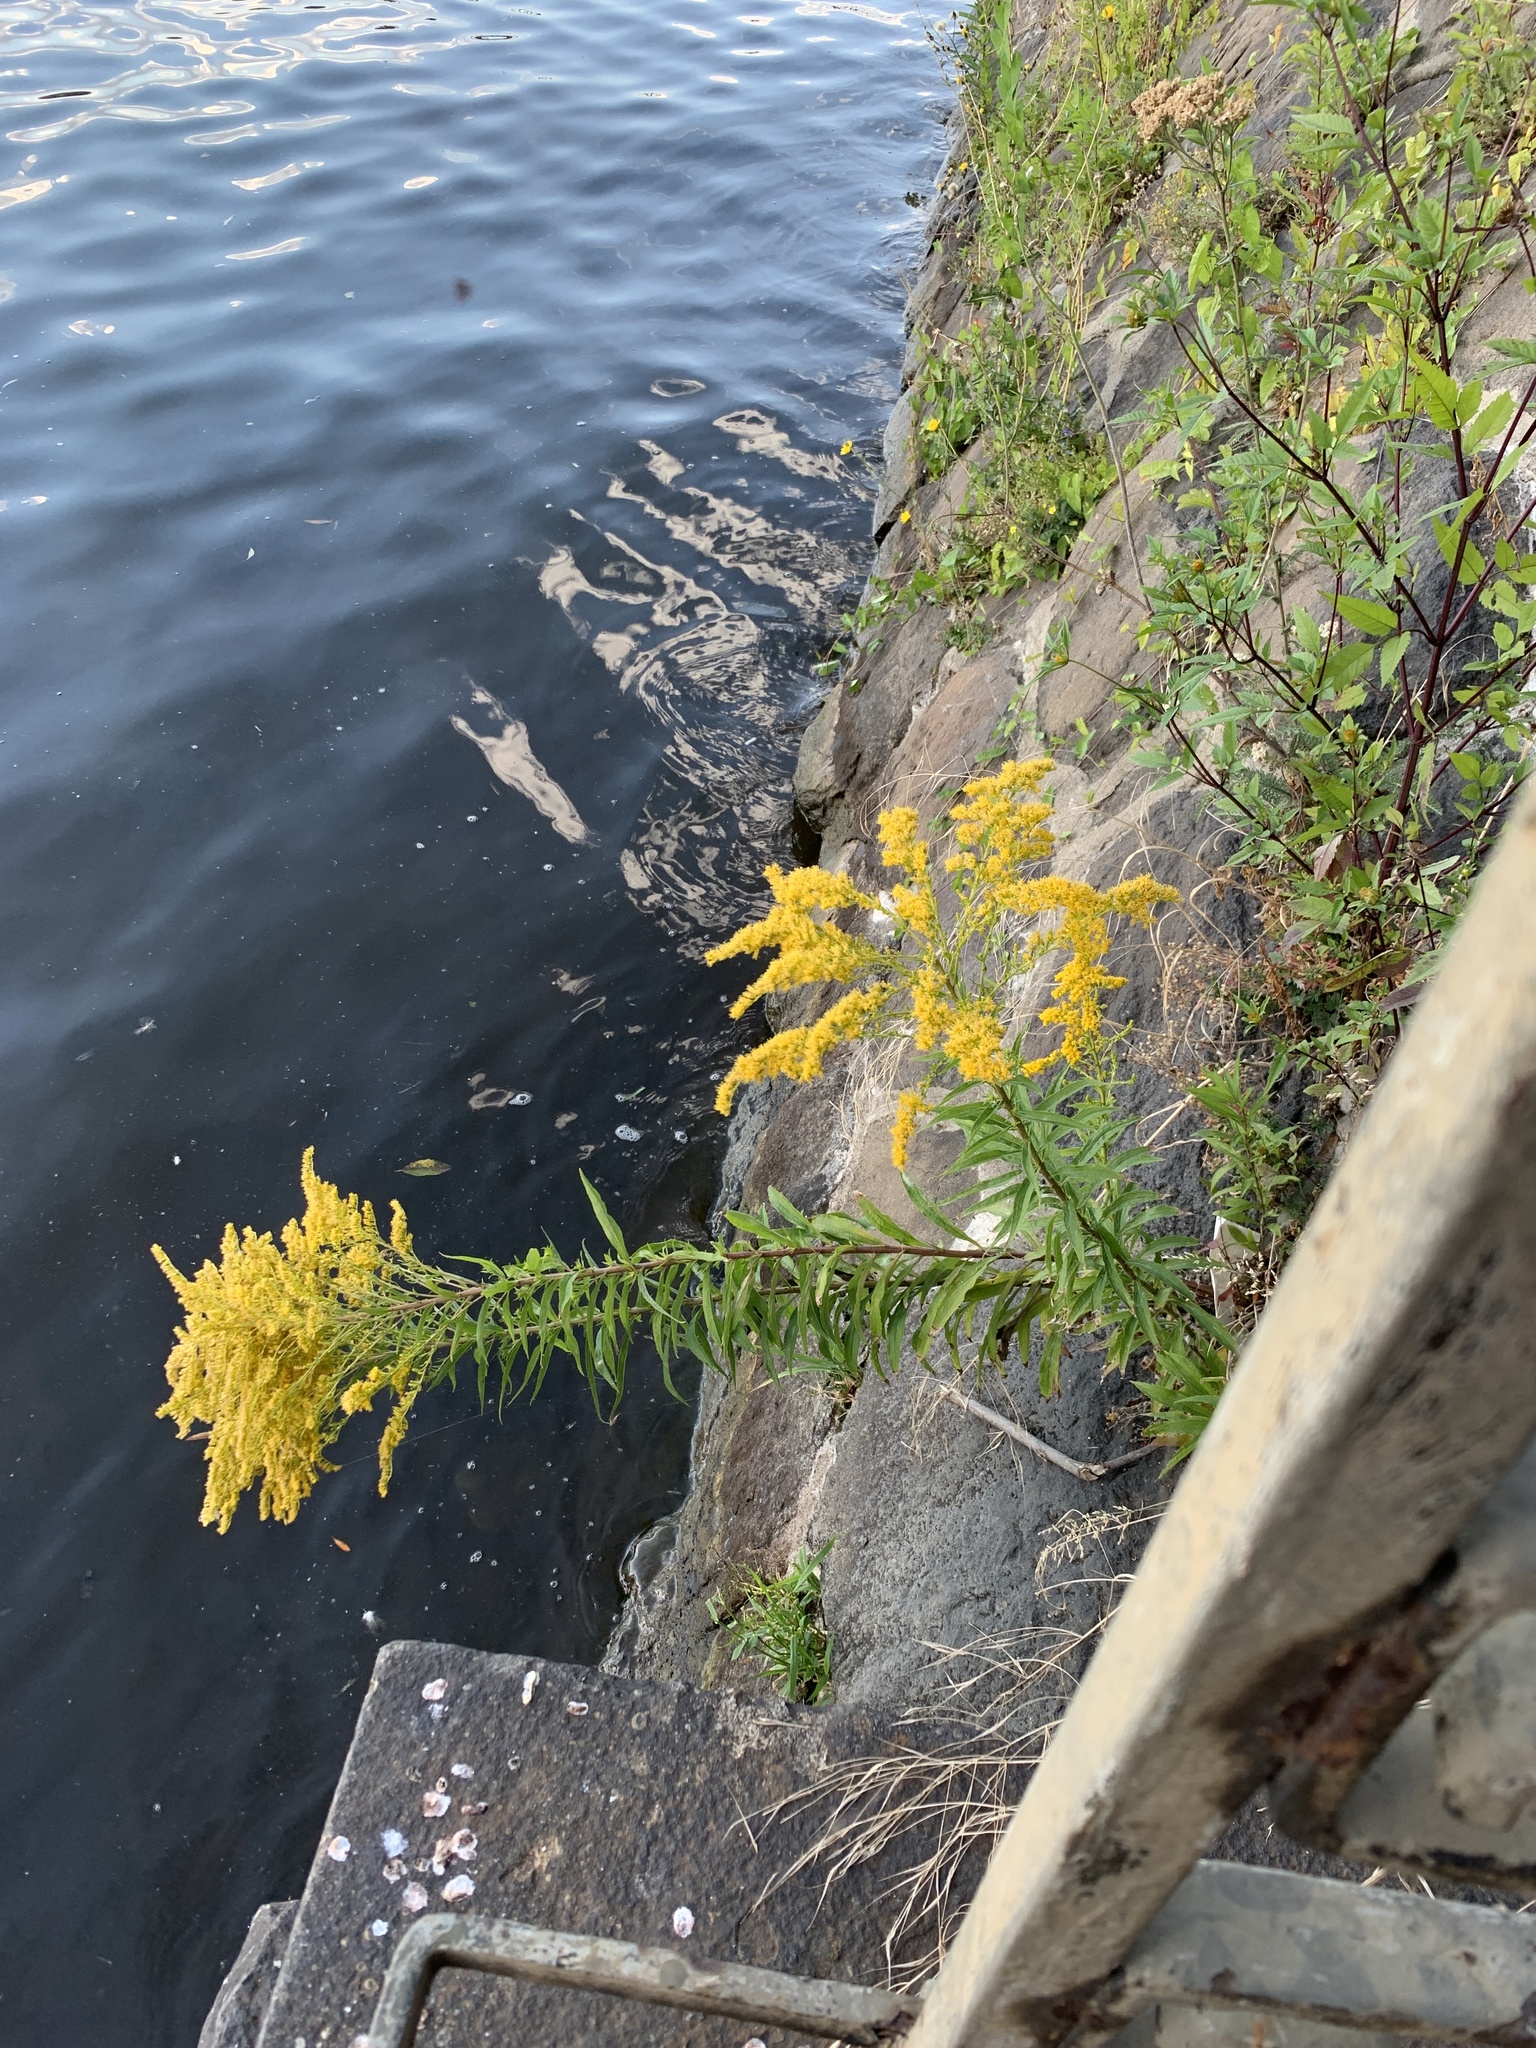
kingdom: Plantae
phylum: Tracheophyta
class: Magnoliopsida
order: Asterales
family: Asteraceae
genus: Solidago
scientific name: Solidago canadensis
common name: Canada goldenrod
